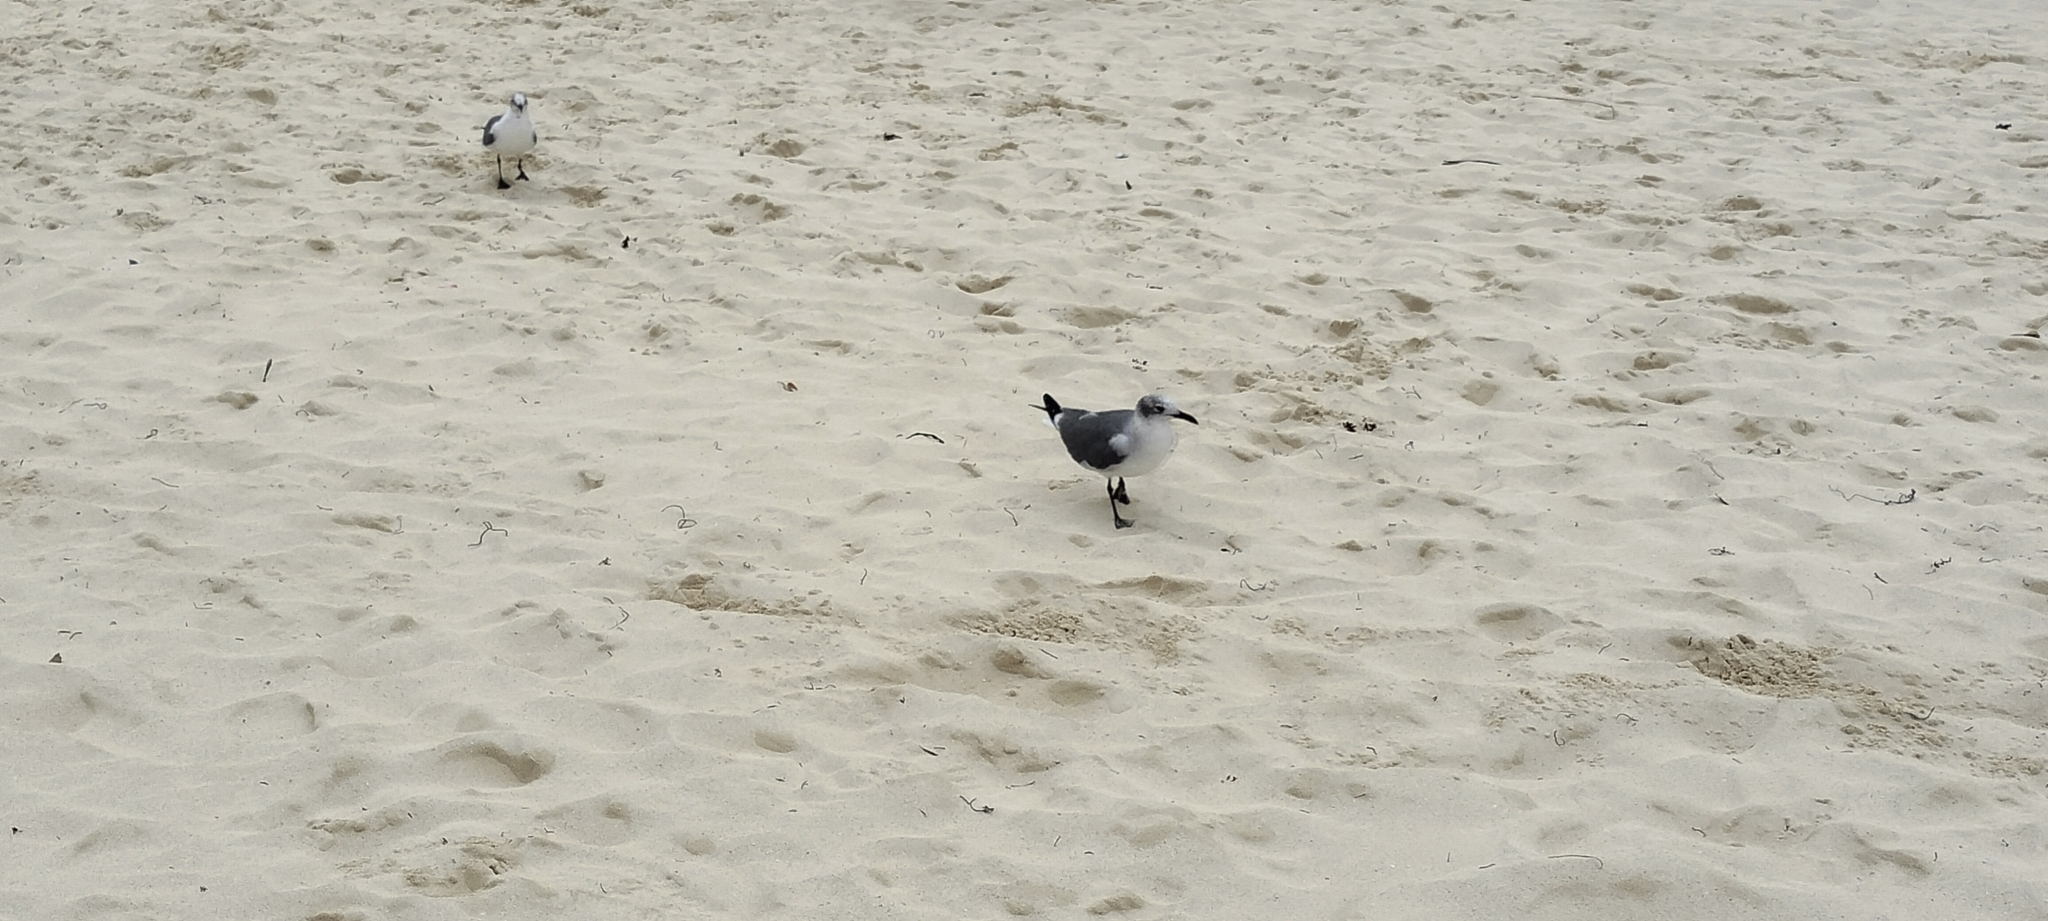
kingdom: Animalia
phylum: Chordata
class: Aves
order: Charadriiformes
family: Laridae
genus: Leucophaeus
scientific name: Leucophaeus atricilla
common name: Laughing gull
